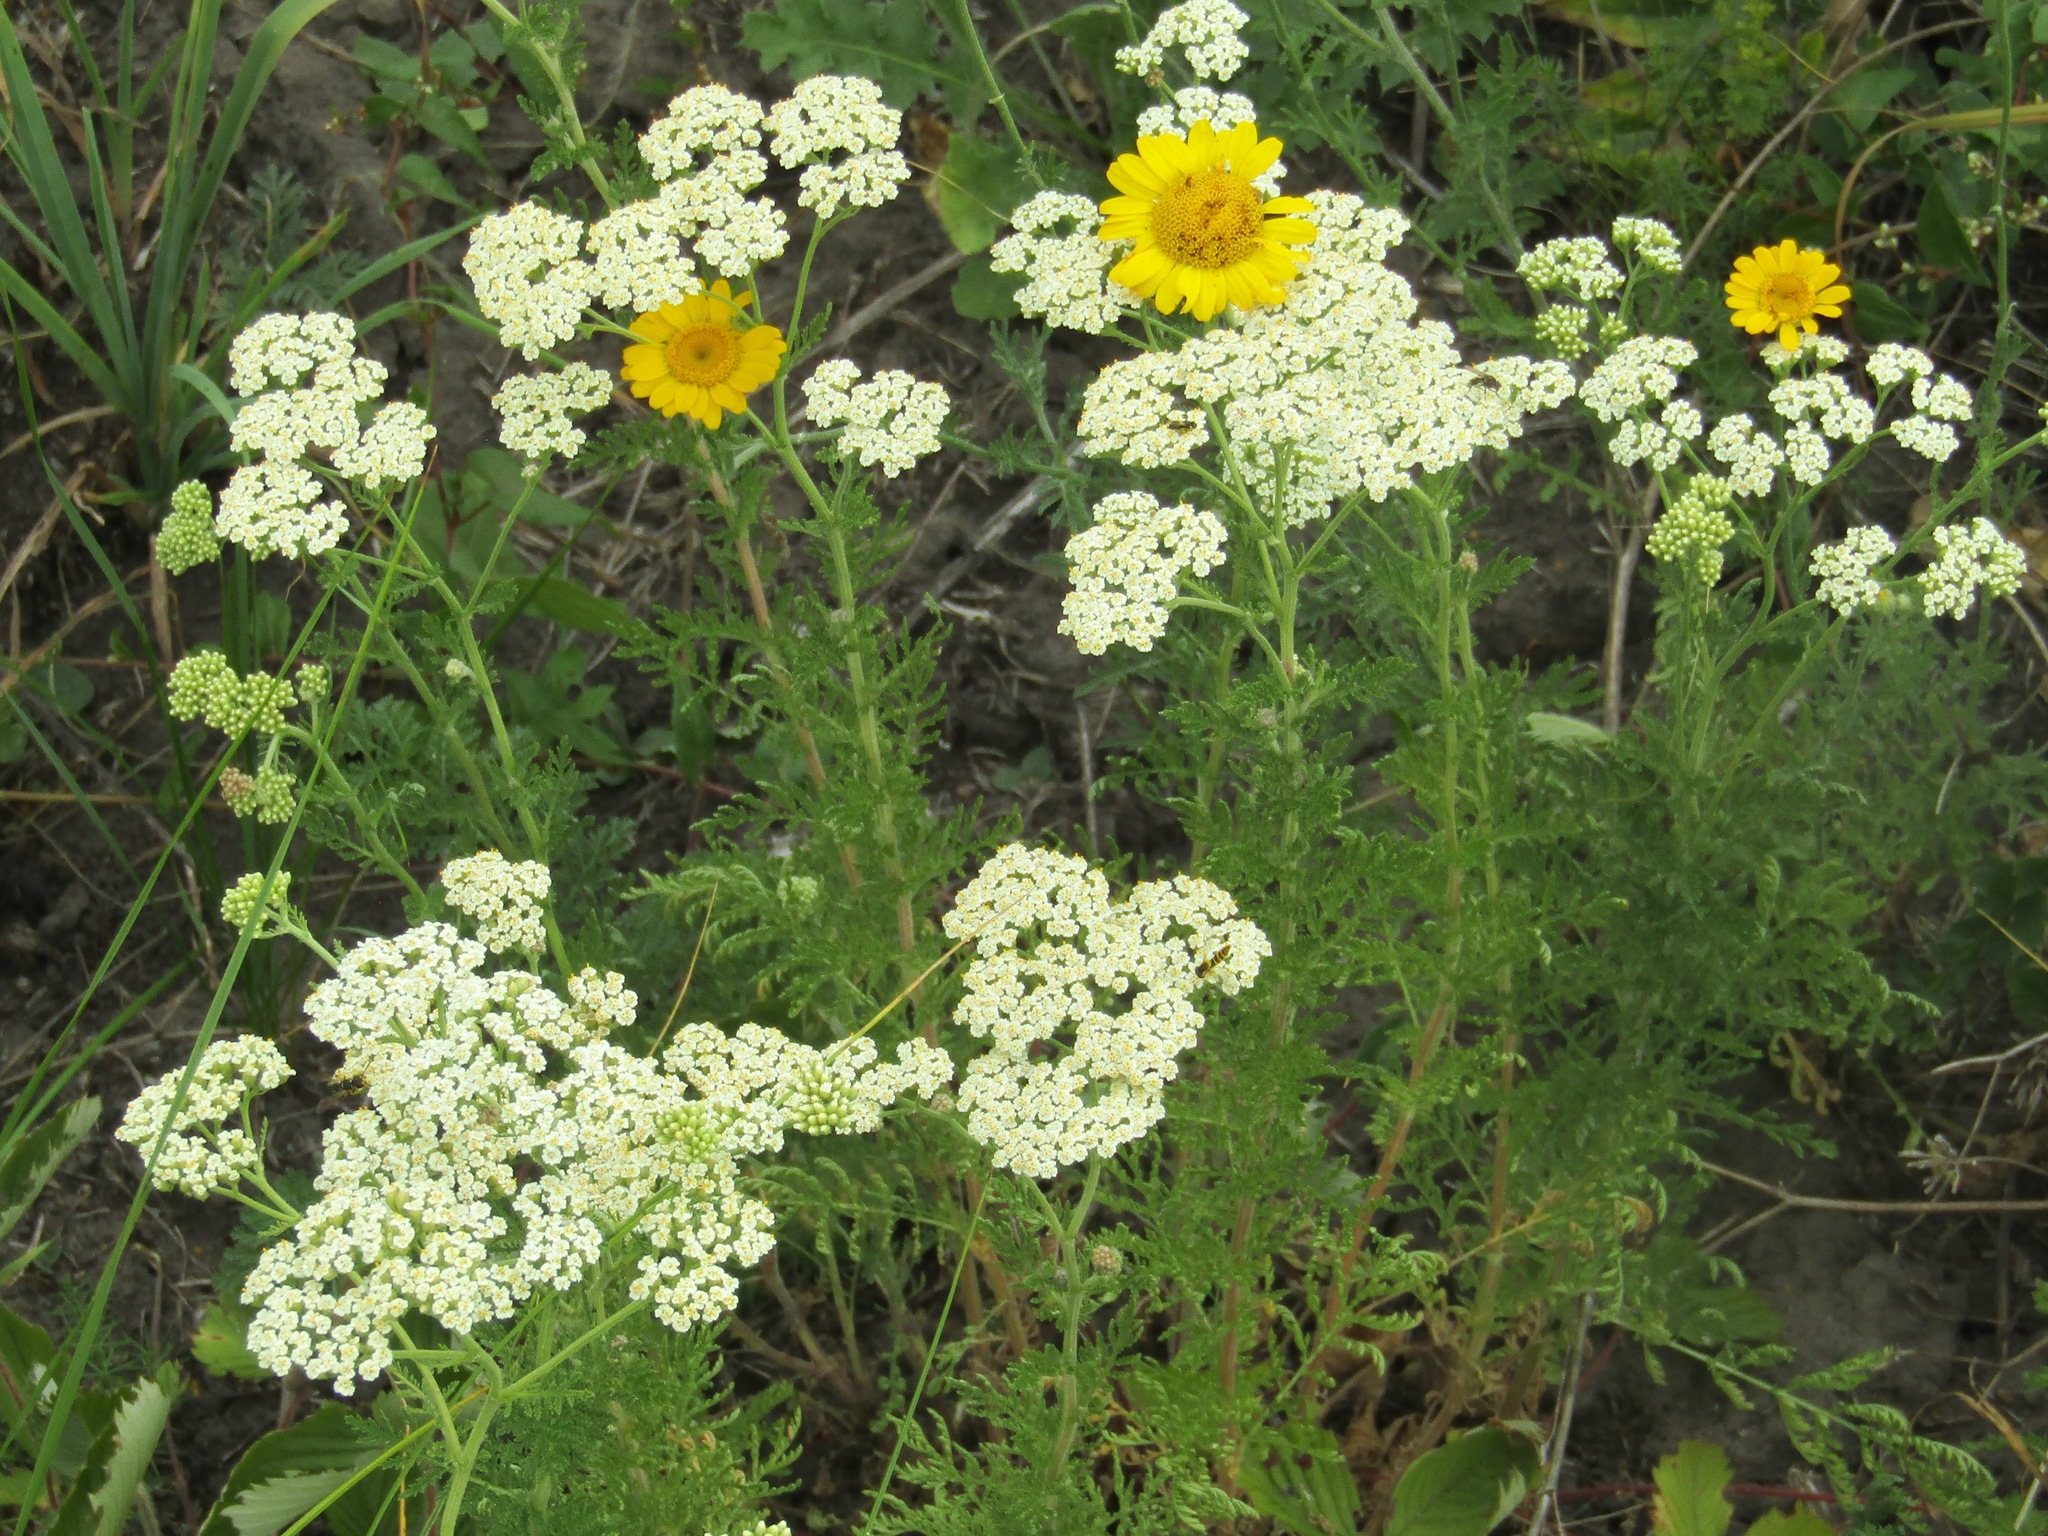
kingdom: Plantae
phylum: Tracheophyta
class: Magnoliopsida
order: Asterales
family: Asteraceae
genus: Achillea
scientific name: Achillea nobilis
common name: Noble yarrow
